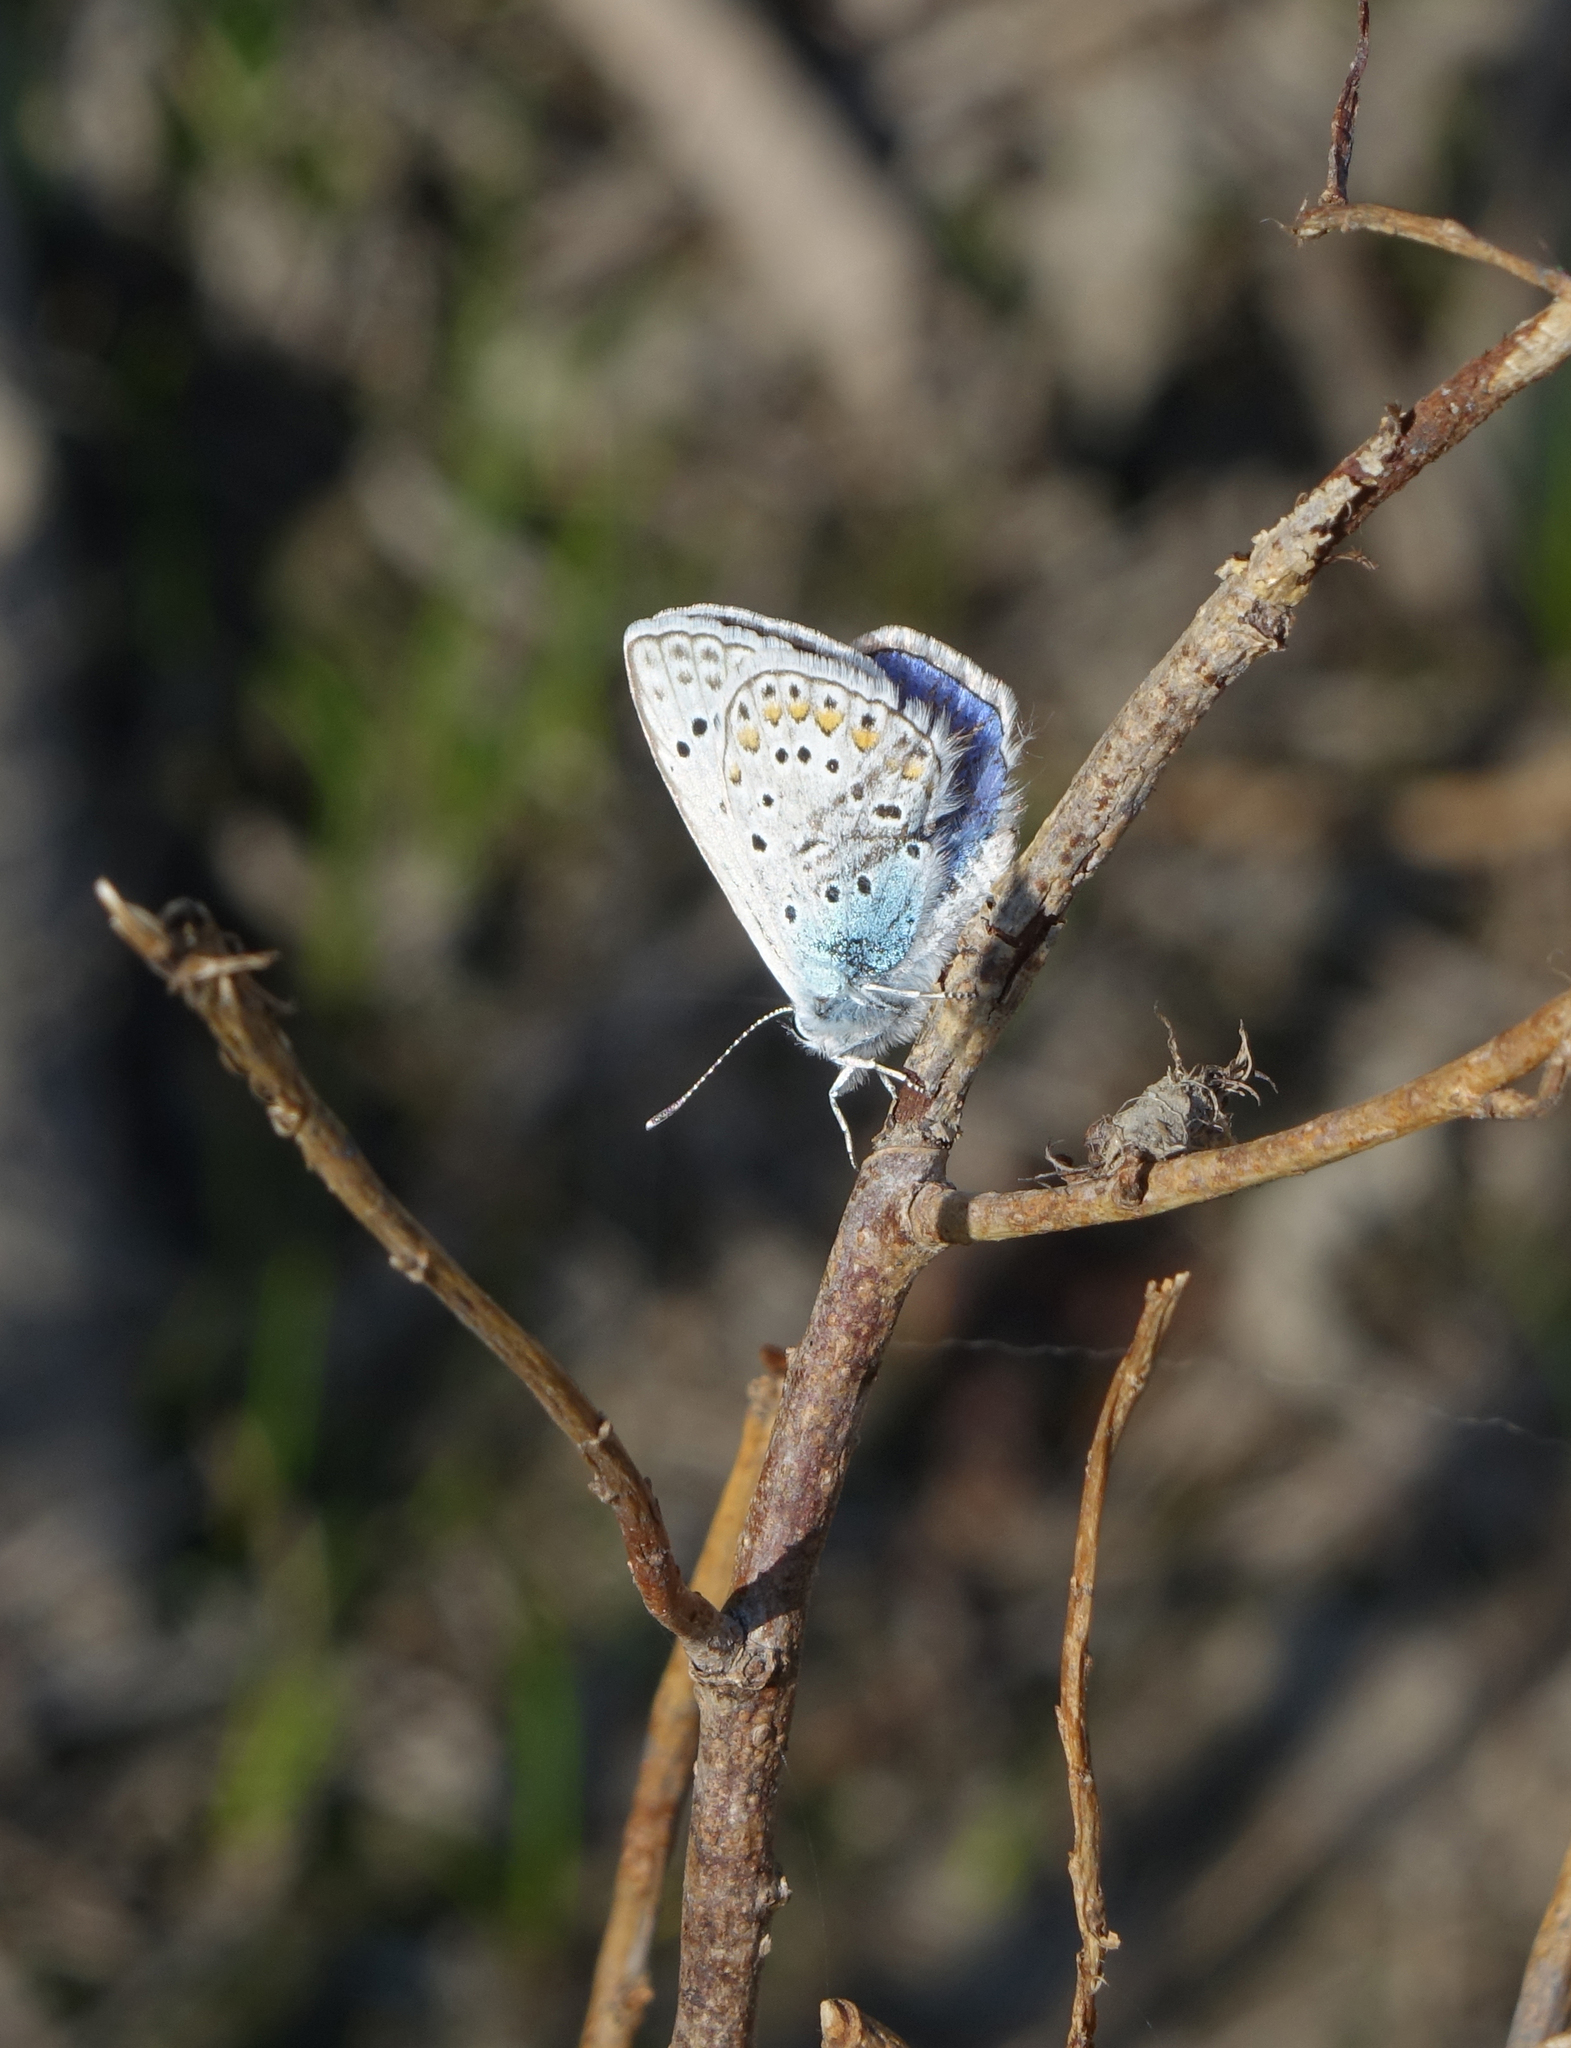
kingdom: Animalia
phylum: Arthropoda
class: Insecta
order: Lepidoptera
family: Lycaenidae
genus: Polyommatus
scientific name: Polyommatus icarus
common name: Common blue
